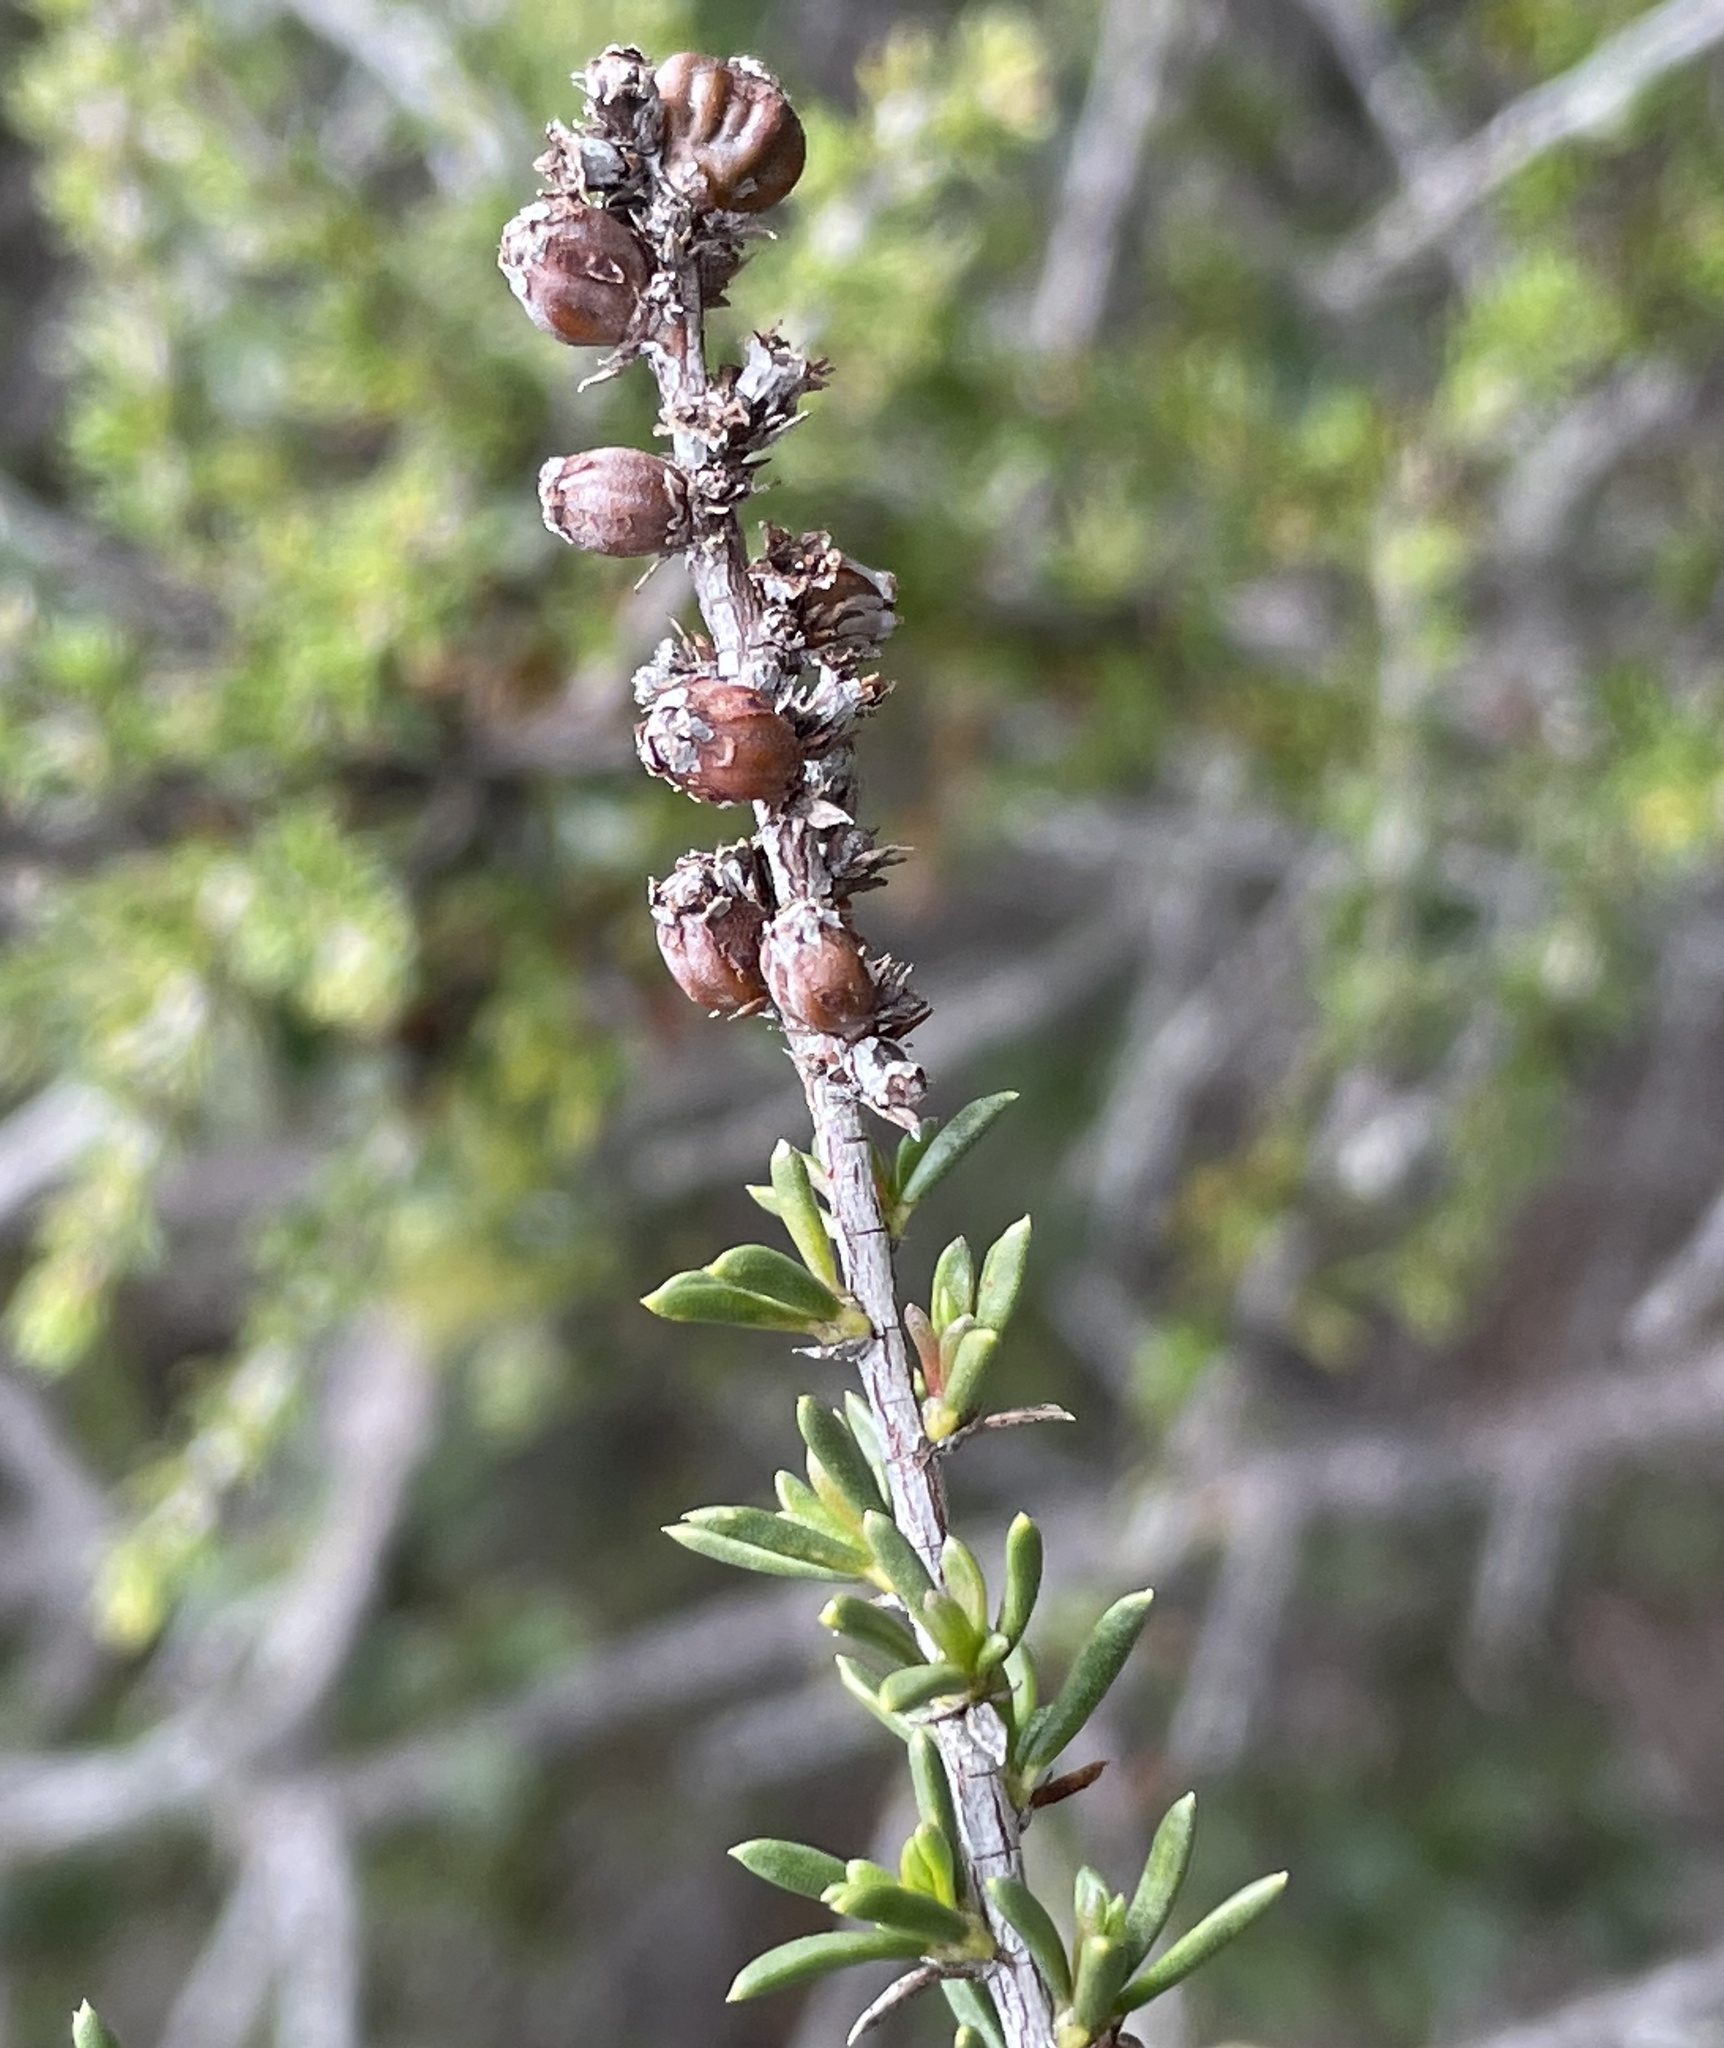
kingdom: Animalia
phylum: Arthropoda
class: Insecta
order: Diptera
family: Cecidomyiidae
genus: Asphondylia
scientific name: Asphondylia adenostoma
